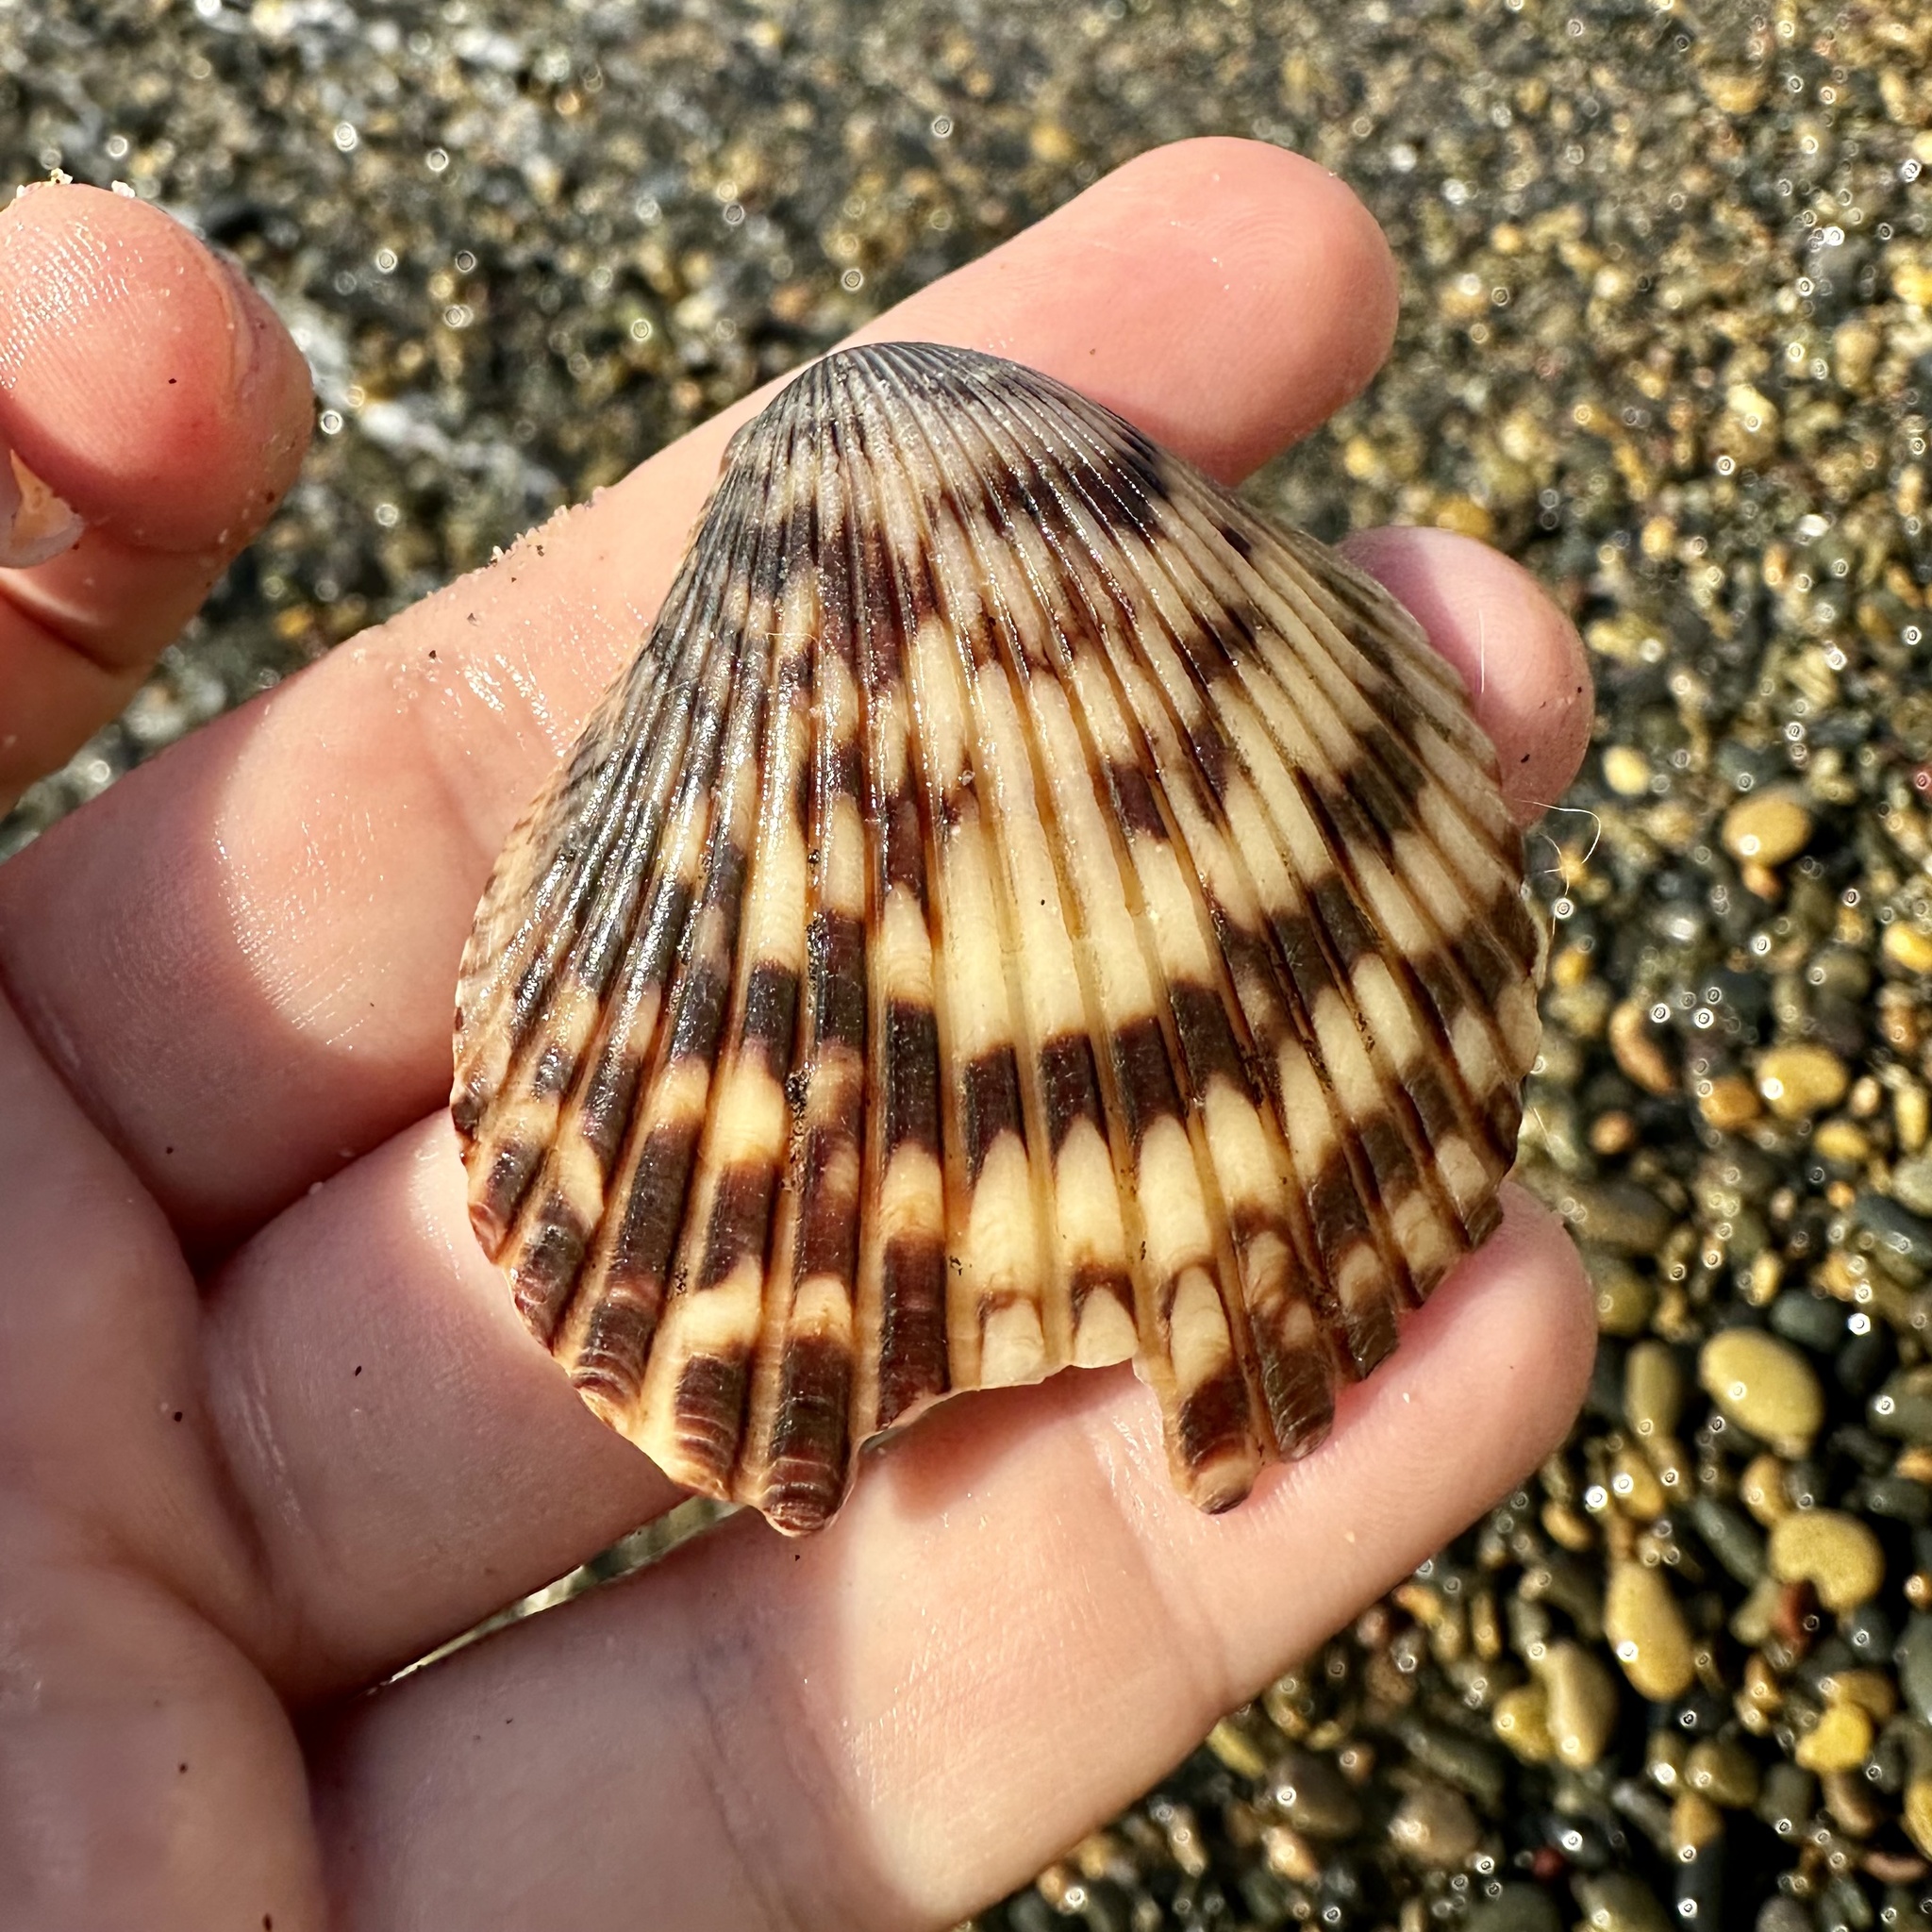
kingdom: Animalia
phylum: Mollusca
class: Bivalvia
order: Pectinida
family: Pectinidae
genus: Argopecten
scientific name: Argopecten ventricosus
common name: Catarina scallop
